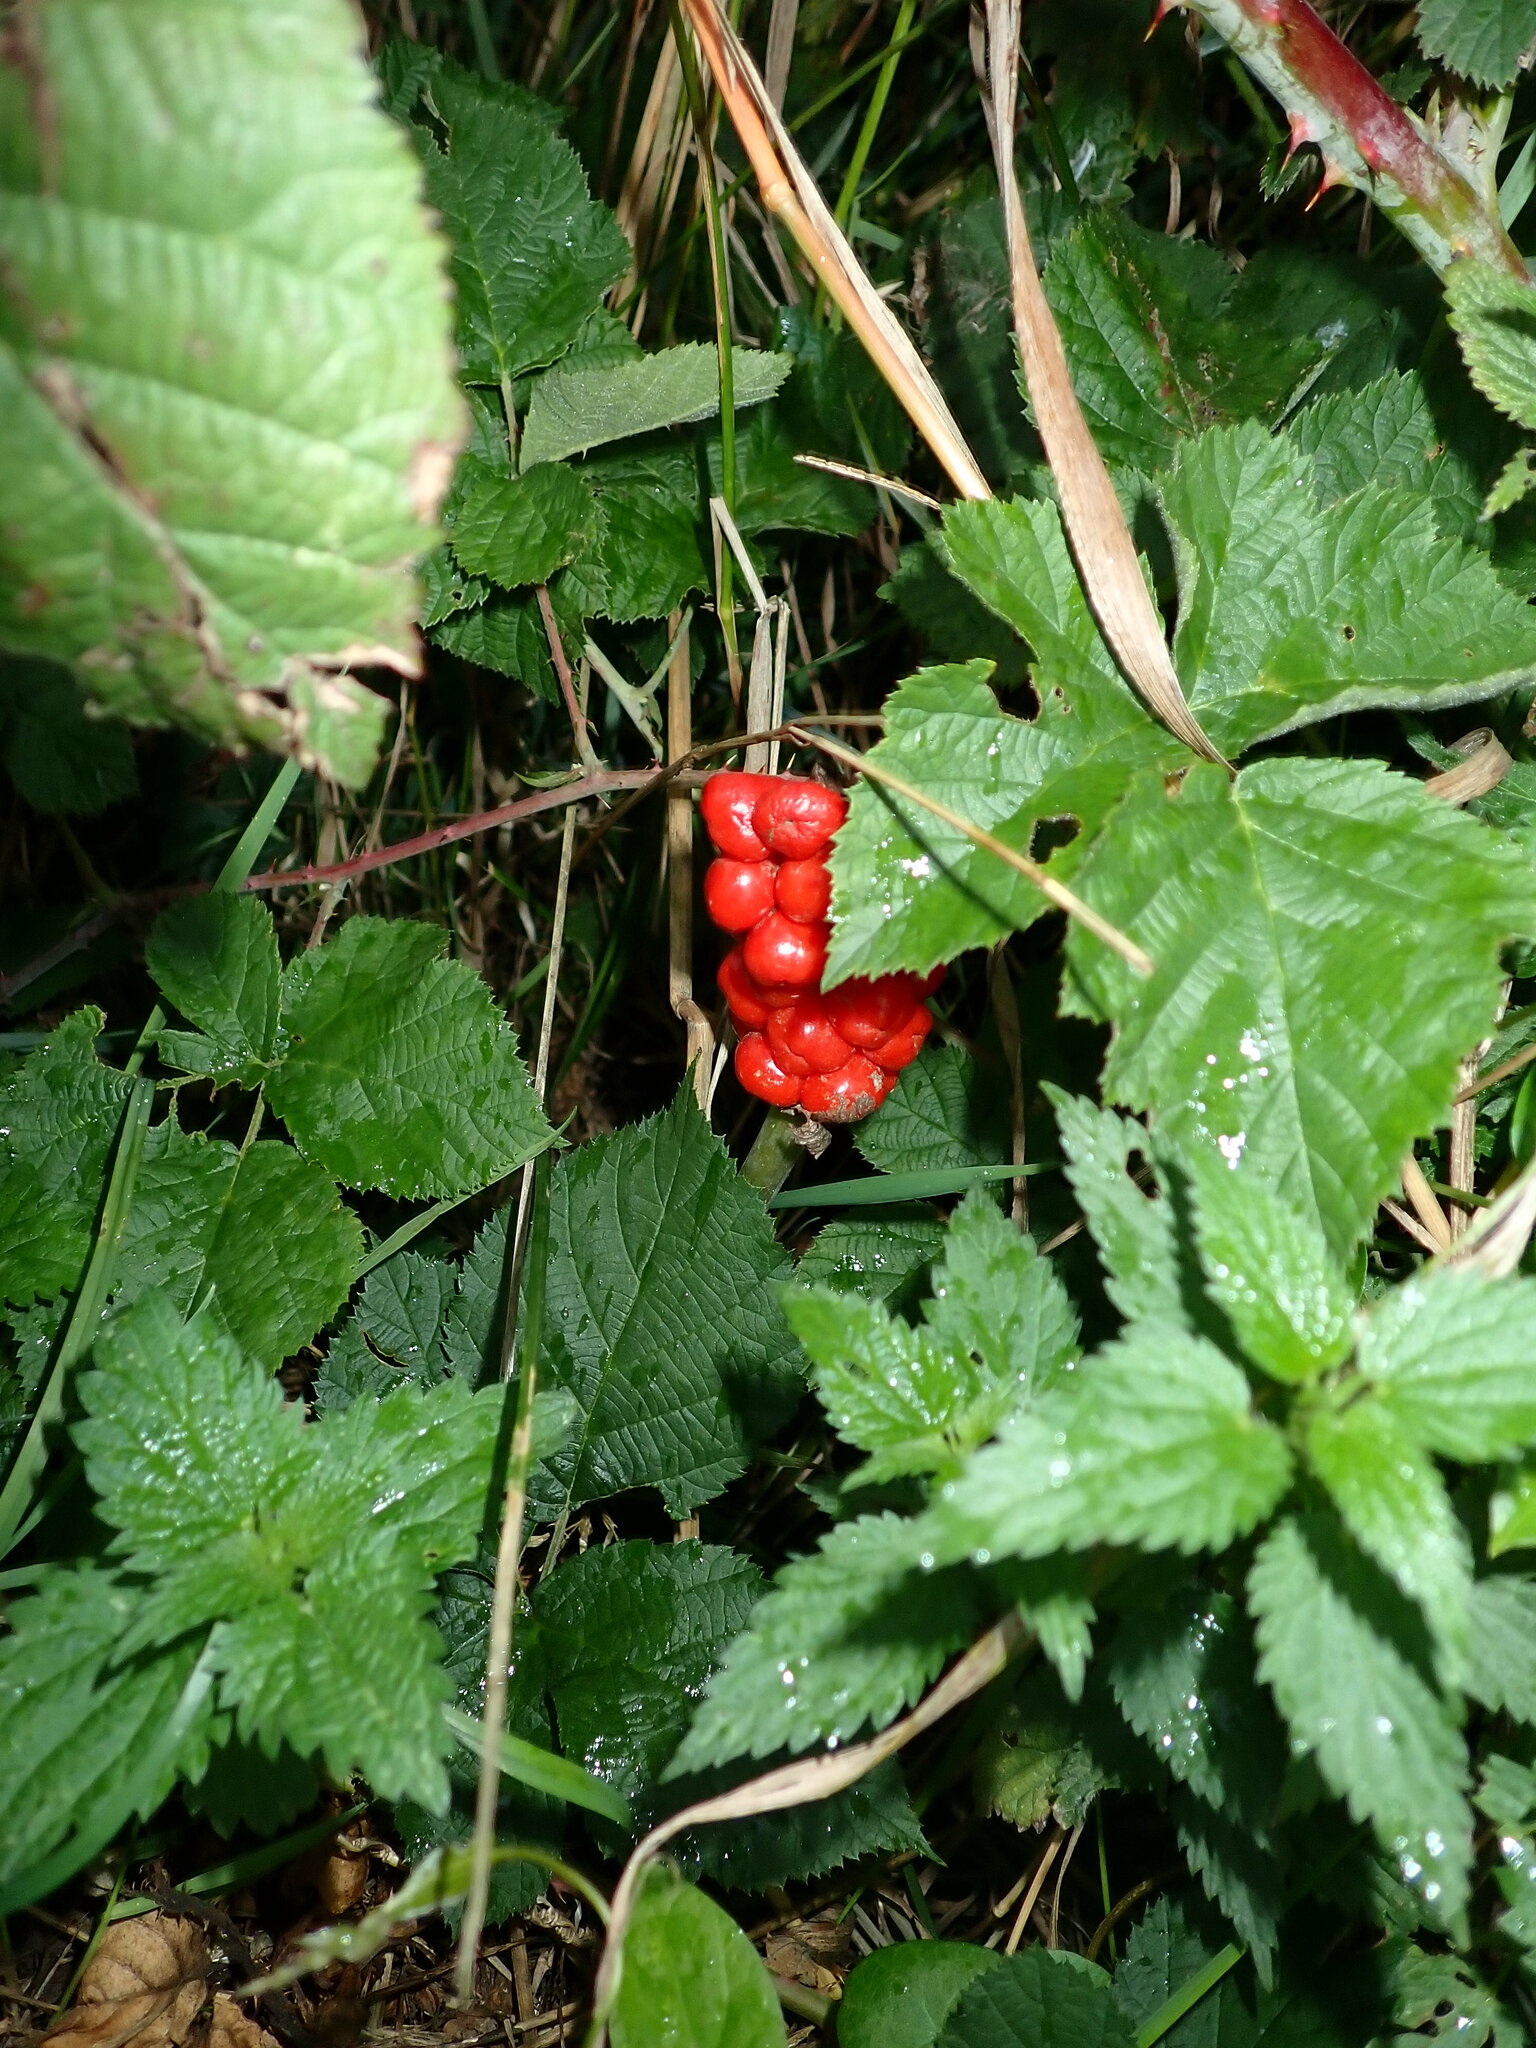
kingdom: Plantae
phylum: Tracheophyta
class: Liliopsida
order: Alismatales
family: Araceae
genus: Arum
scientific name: Arum maculatum
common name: Lords-and-ladies
